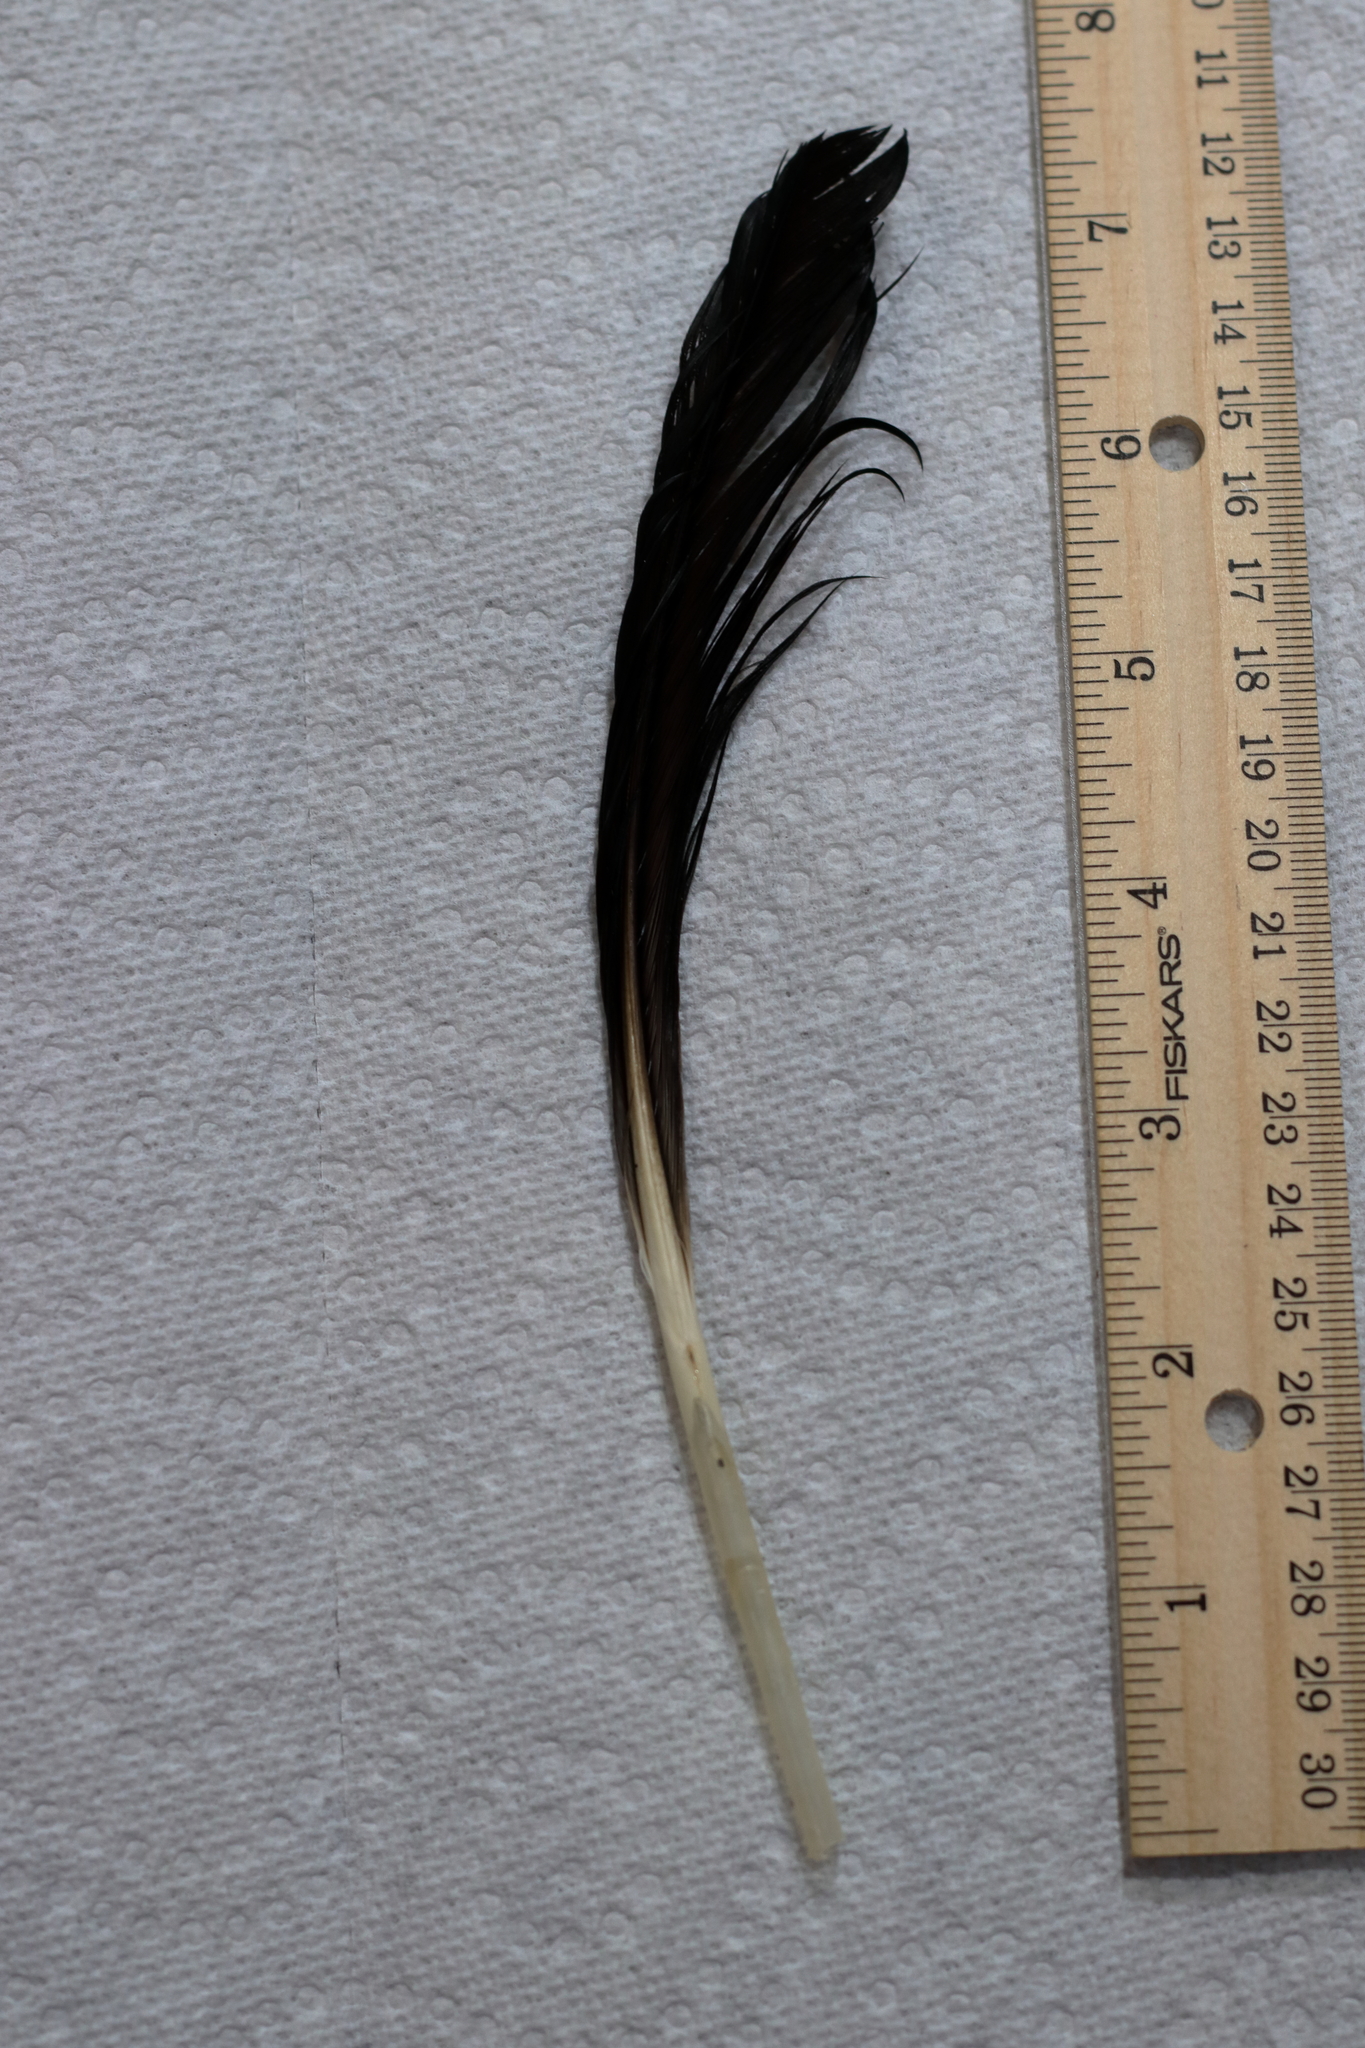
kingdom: Animalia
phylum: Chordata
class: Aves
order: Charadriiformes
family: Laridae
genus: Leucophaeus
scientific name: Leucophaeus atricilla
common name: Laughing gull
